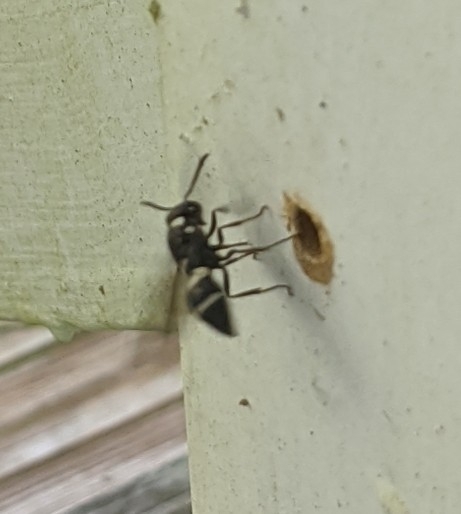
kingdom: Animalia
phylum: Arthropoda
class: Insecta
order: Hymenoptera
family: Eumenidae
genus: Euodynerus
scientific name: Euodynerus megaera
